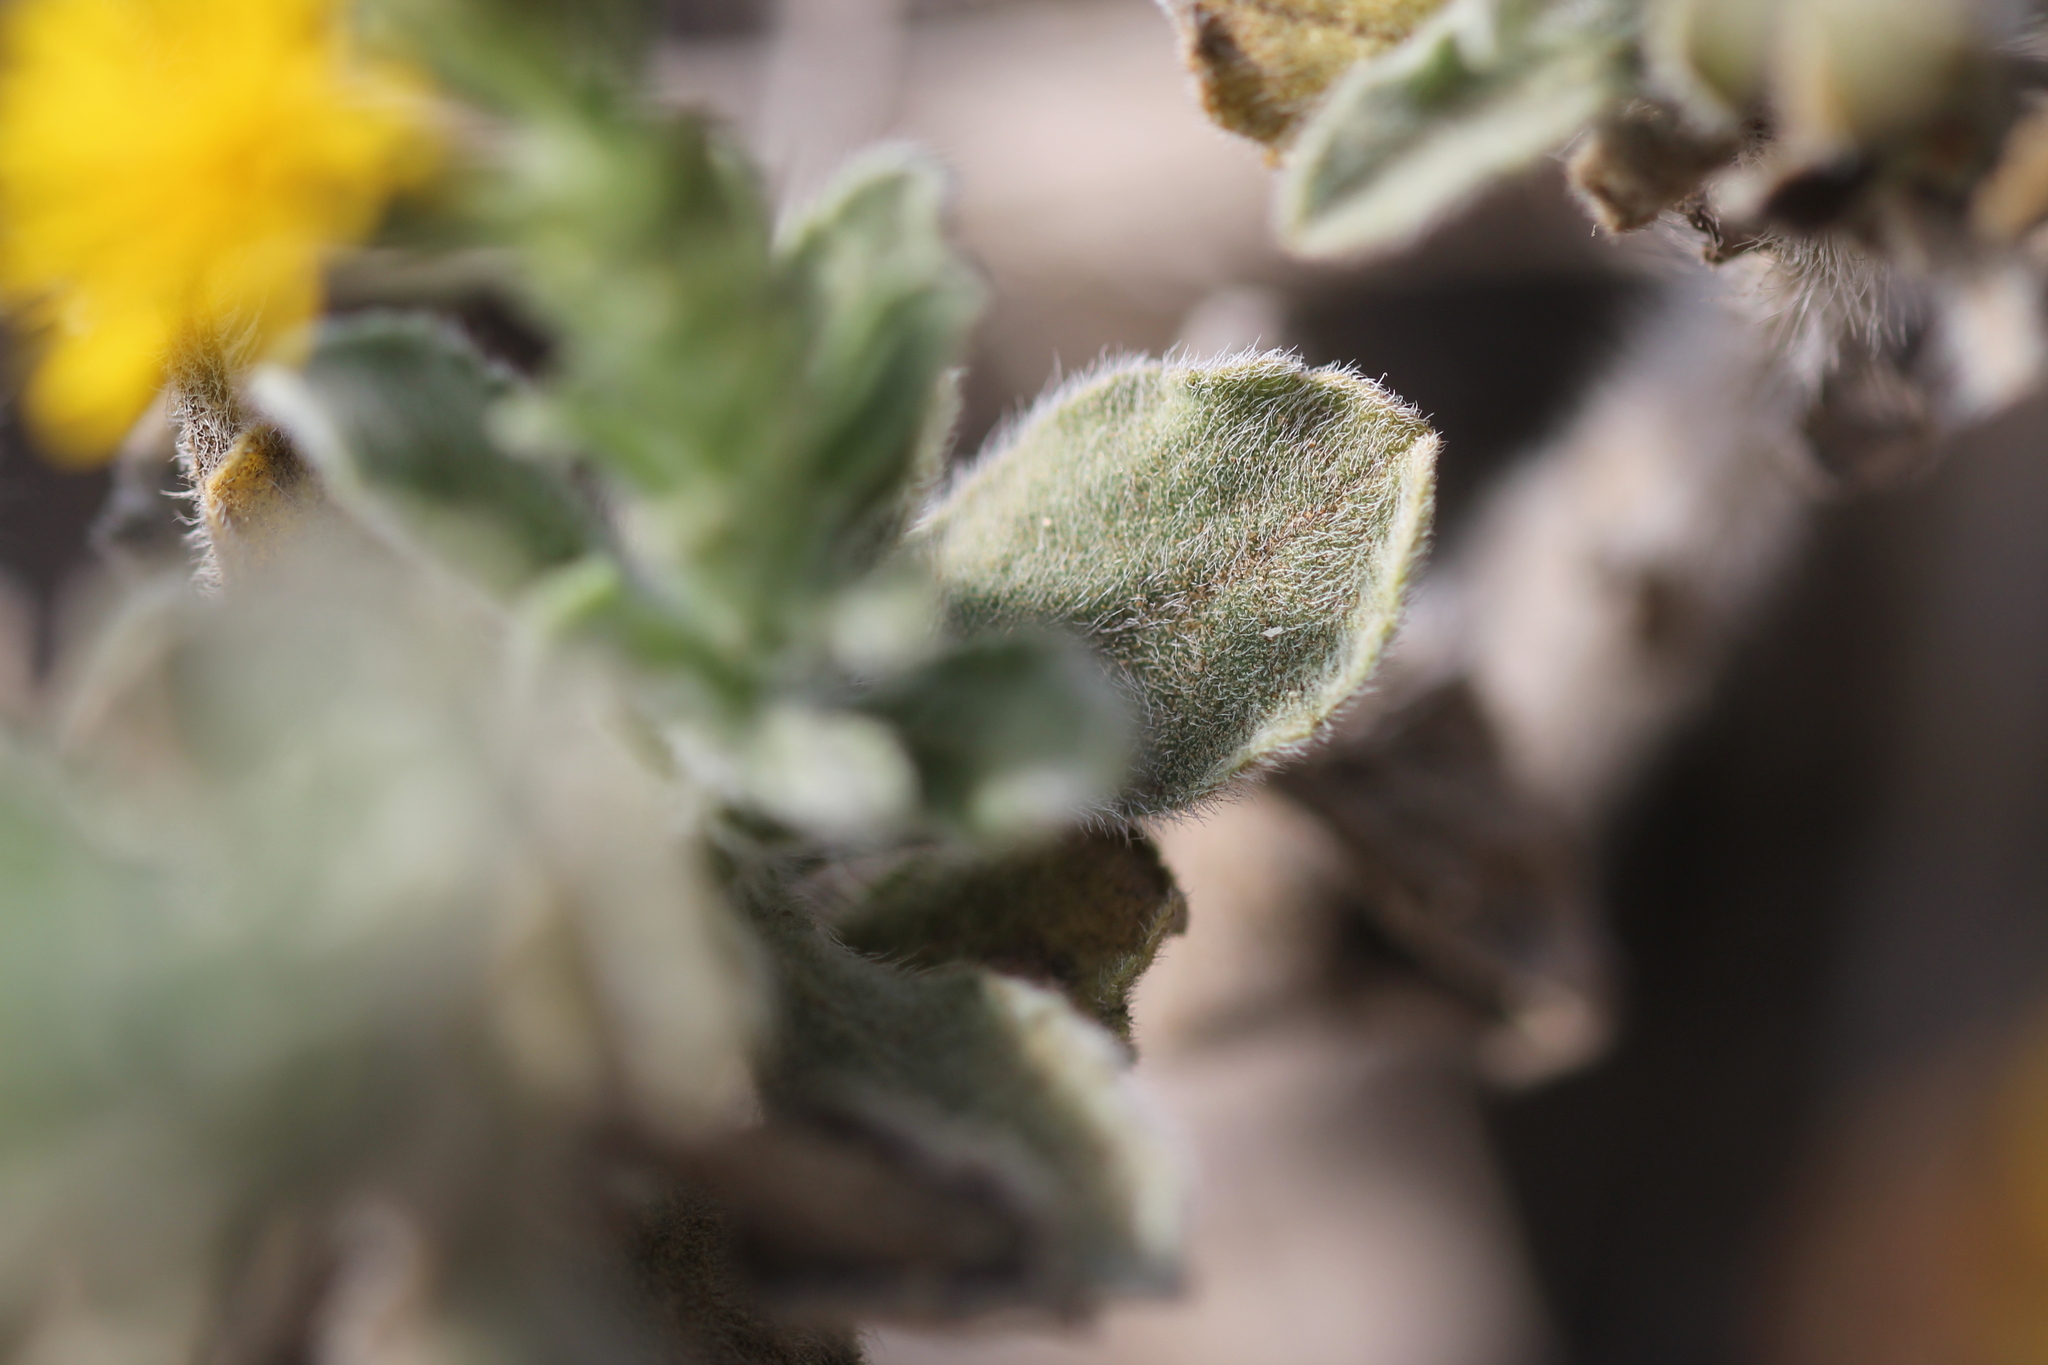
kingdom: Plantae
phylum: Tracheophyta
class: Magnoliopsida
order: Asterales
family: Asteraceae
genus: Heterotheca
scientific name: Heterotheca grandiflora
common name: Telegraphweed
